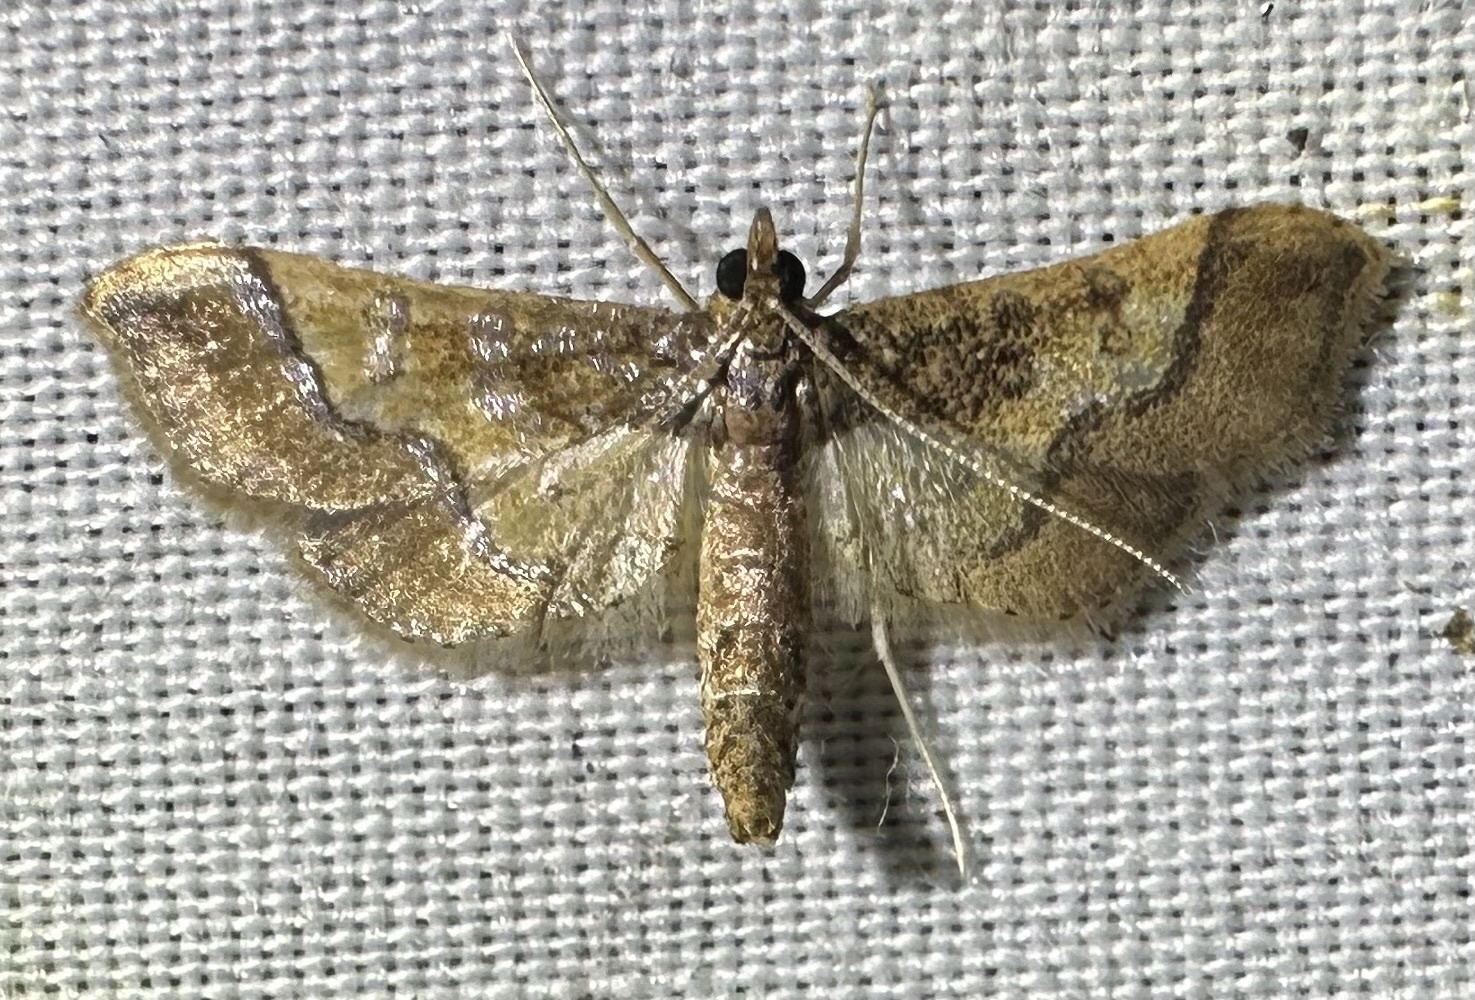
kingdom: Animalia
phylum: Arthropoda
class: Insecta
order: Lepidoptera
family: Crambidae
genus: Hydriris
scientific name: Hydriris ornatalis
